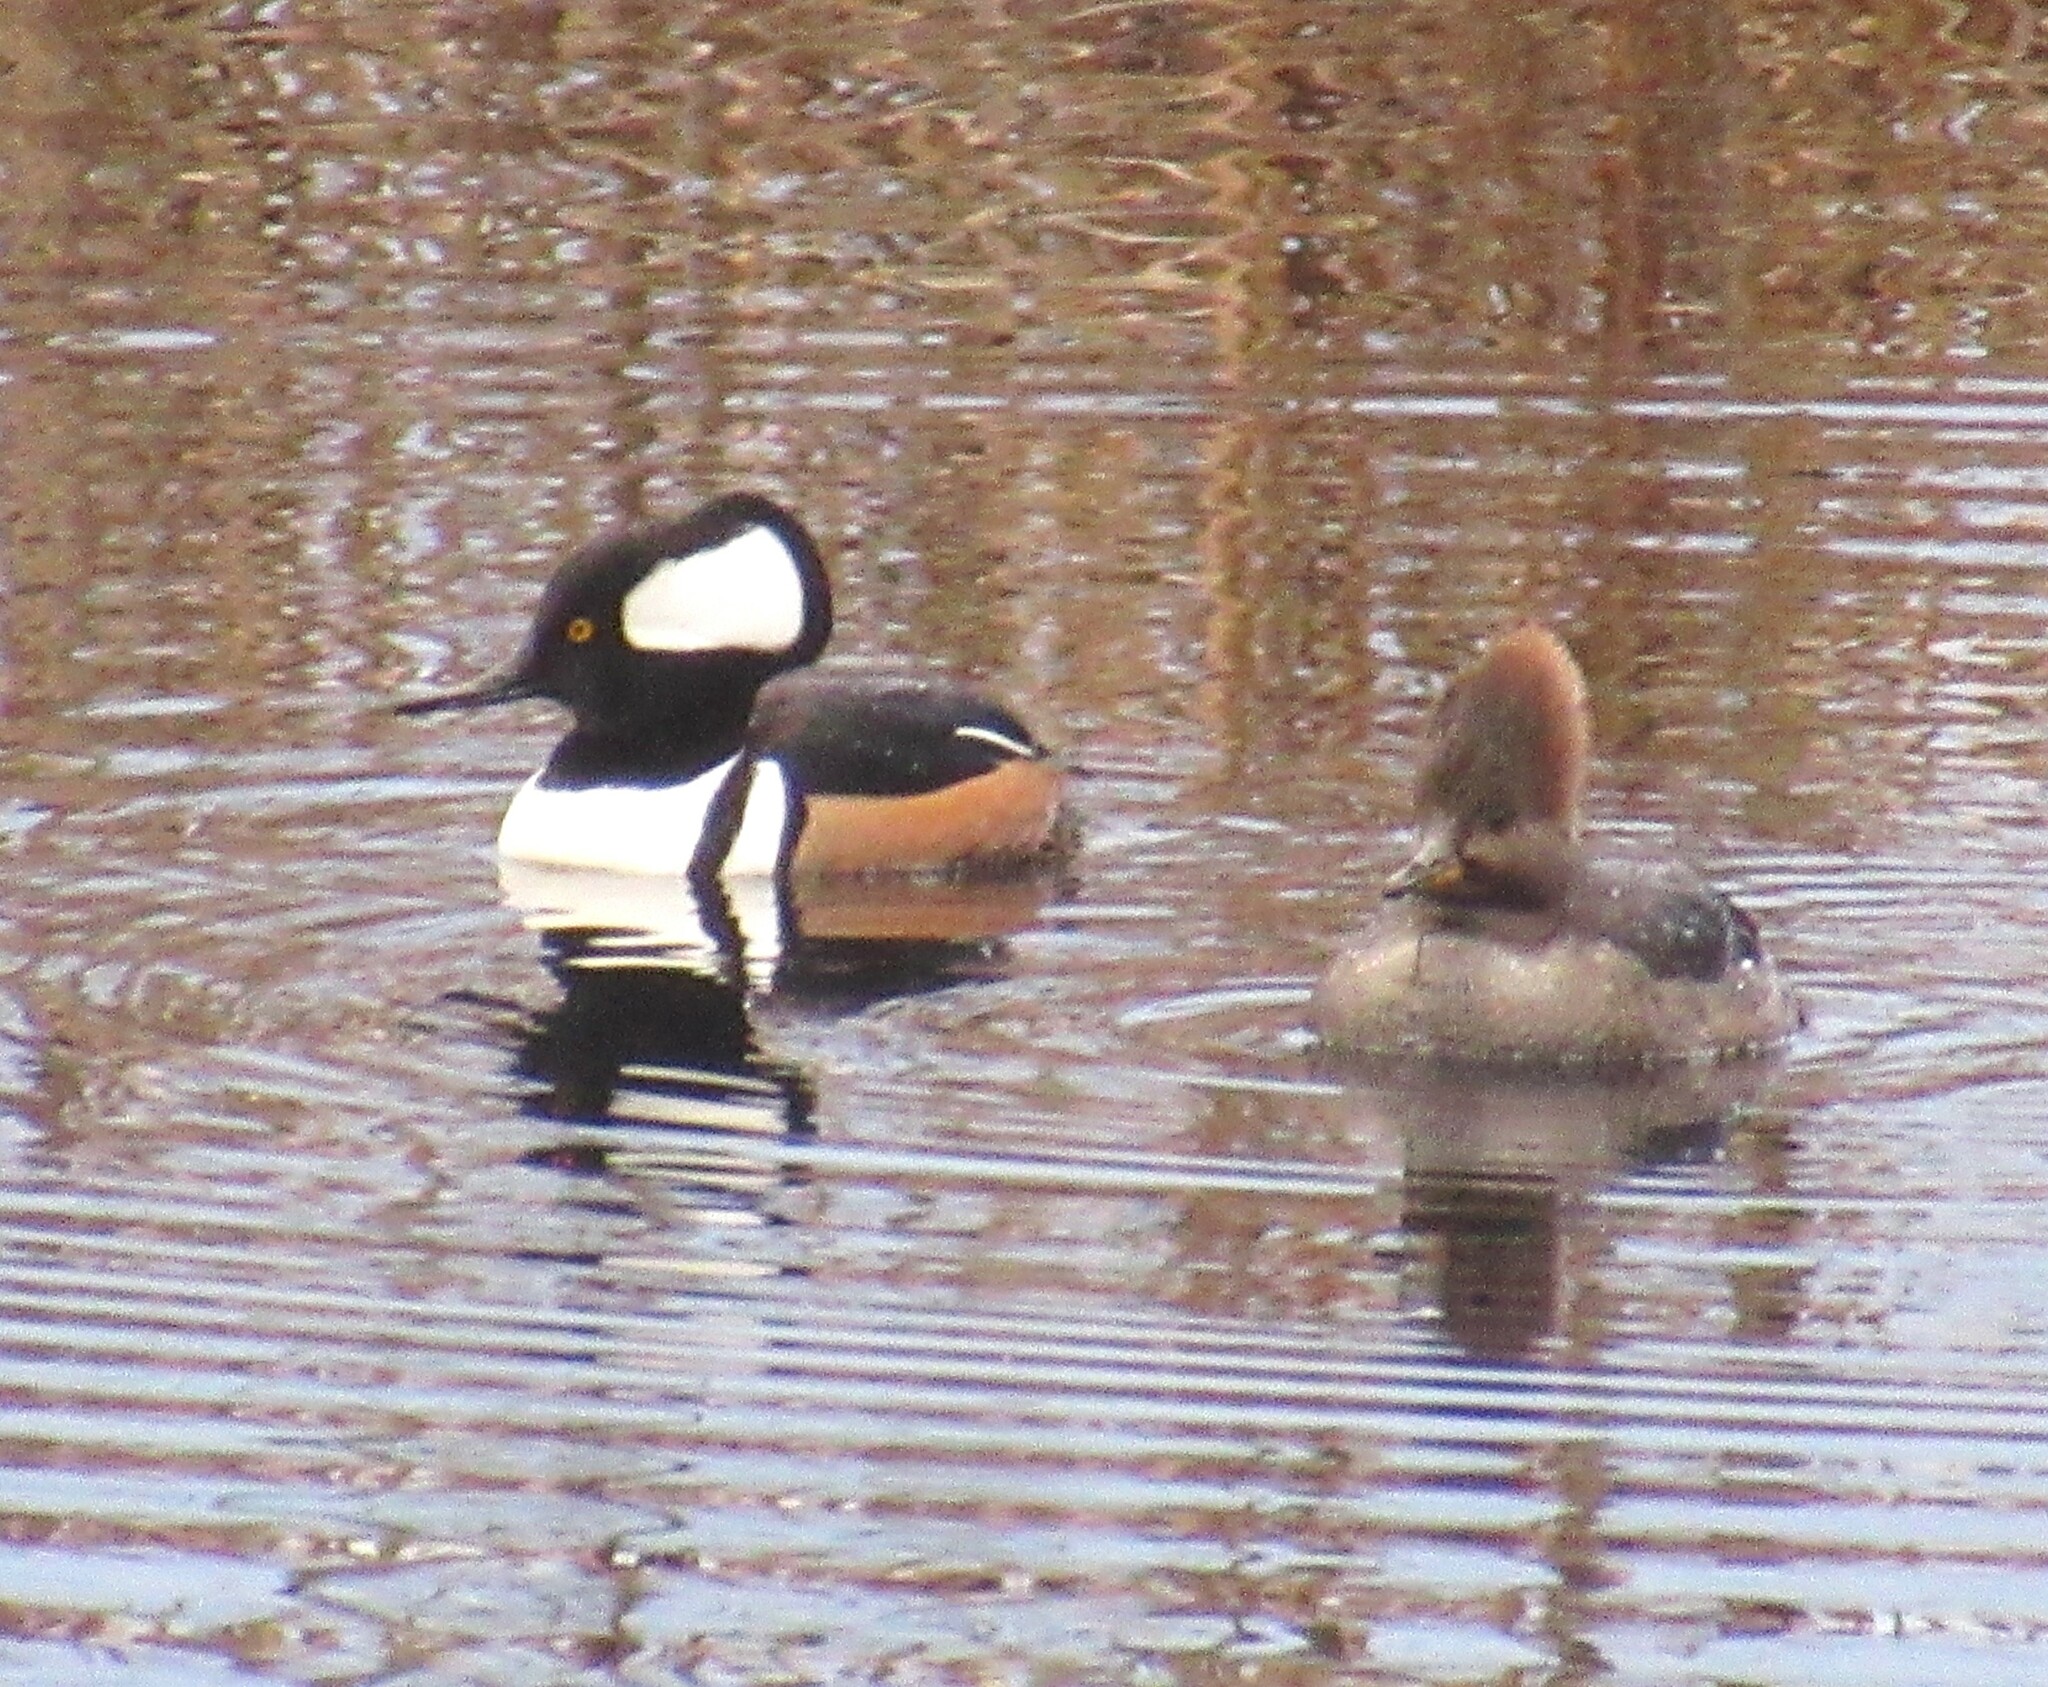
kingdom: Animalia
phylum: Chordata
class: Aves
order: Anseriformes
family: Anatidae
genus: Lophodytes
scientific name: Lophodytes cucullatus
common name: Hooded merganser
